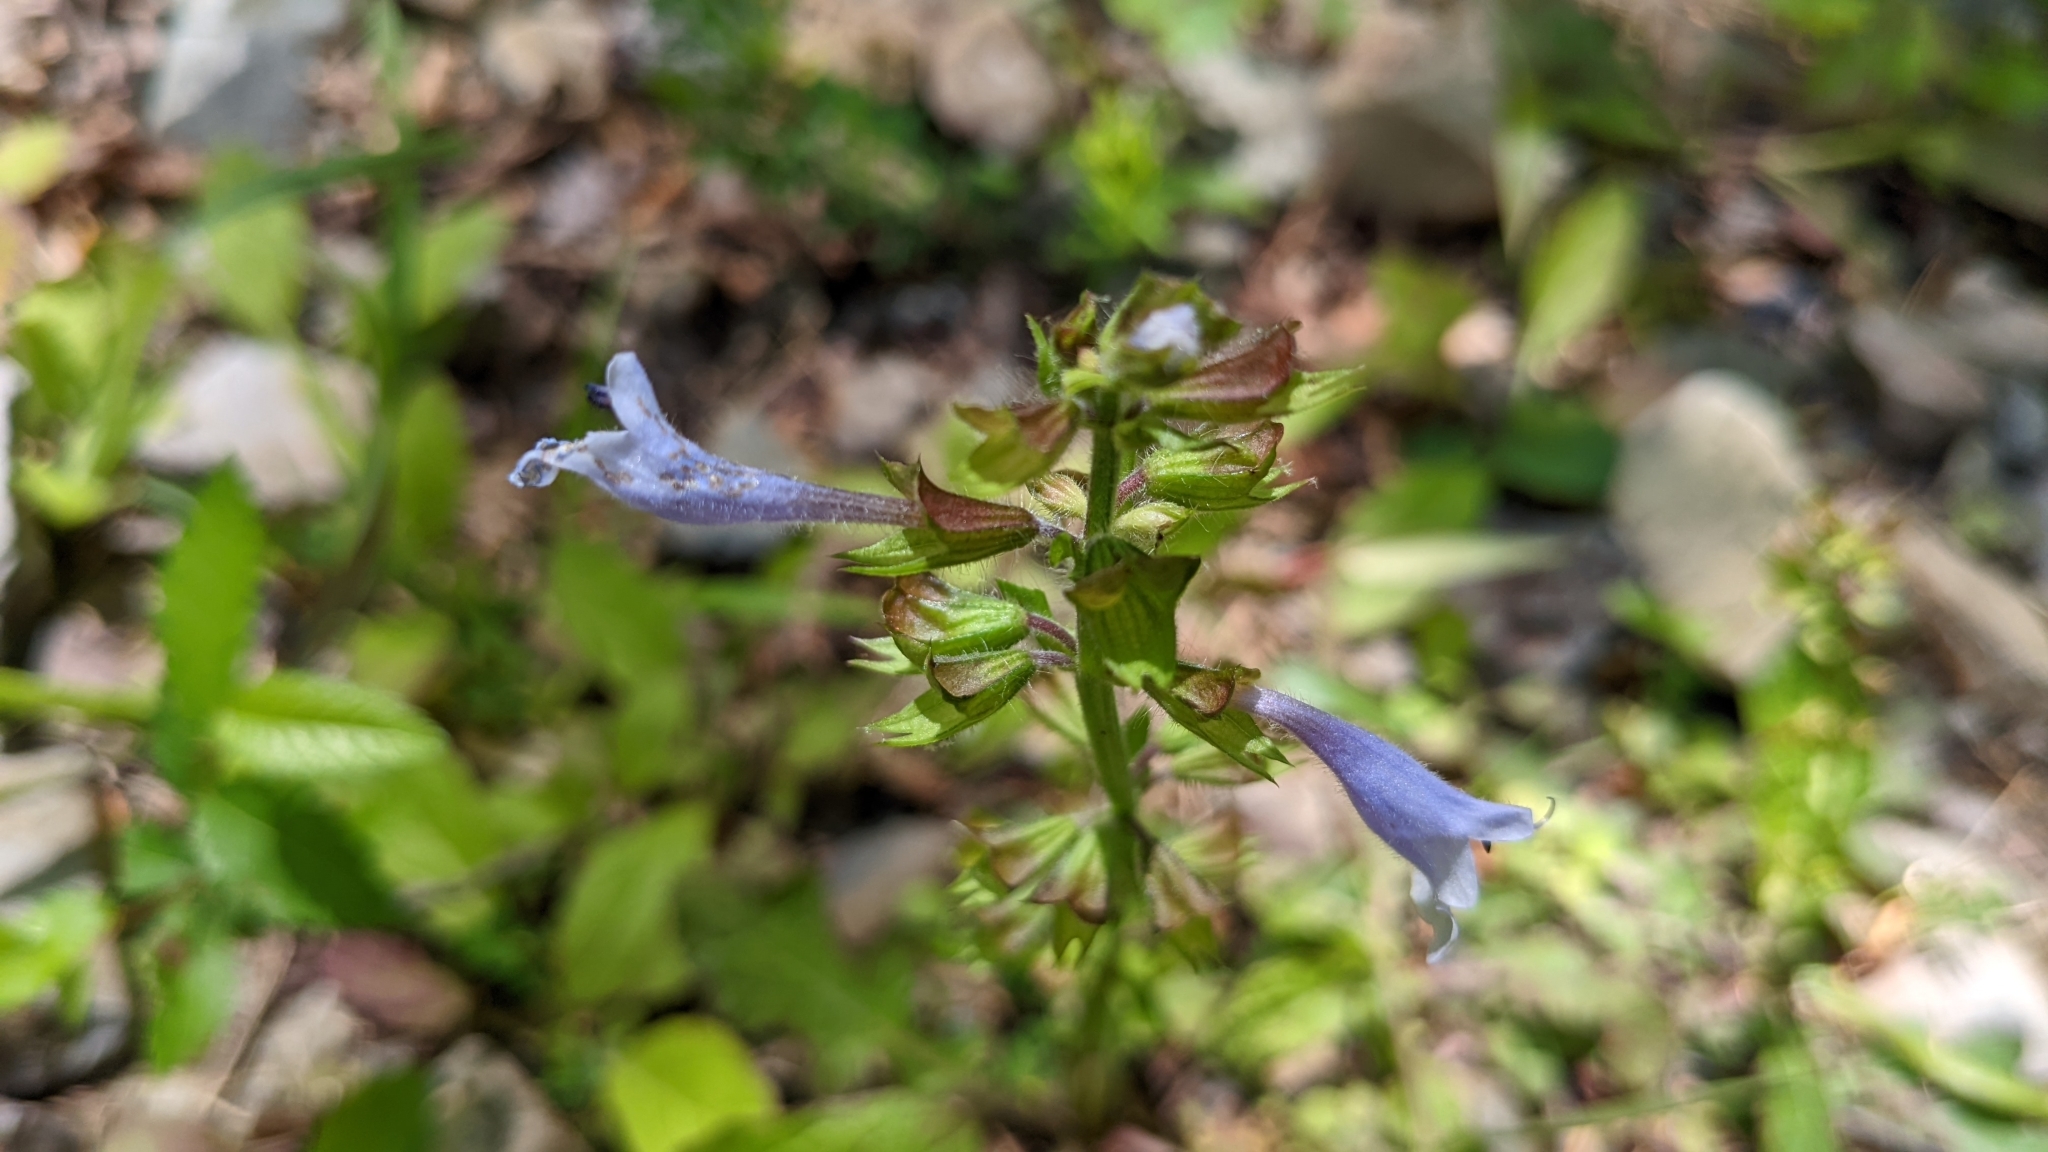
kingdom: Plantae
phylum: Tracheophyta
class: Magnoliopsida
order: Lamiales
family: Lamiaceae
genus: Salvia
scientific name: Salvia lyrata
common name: Cancerweed
